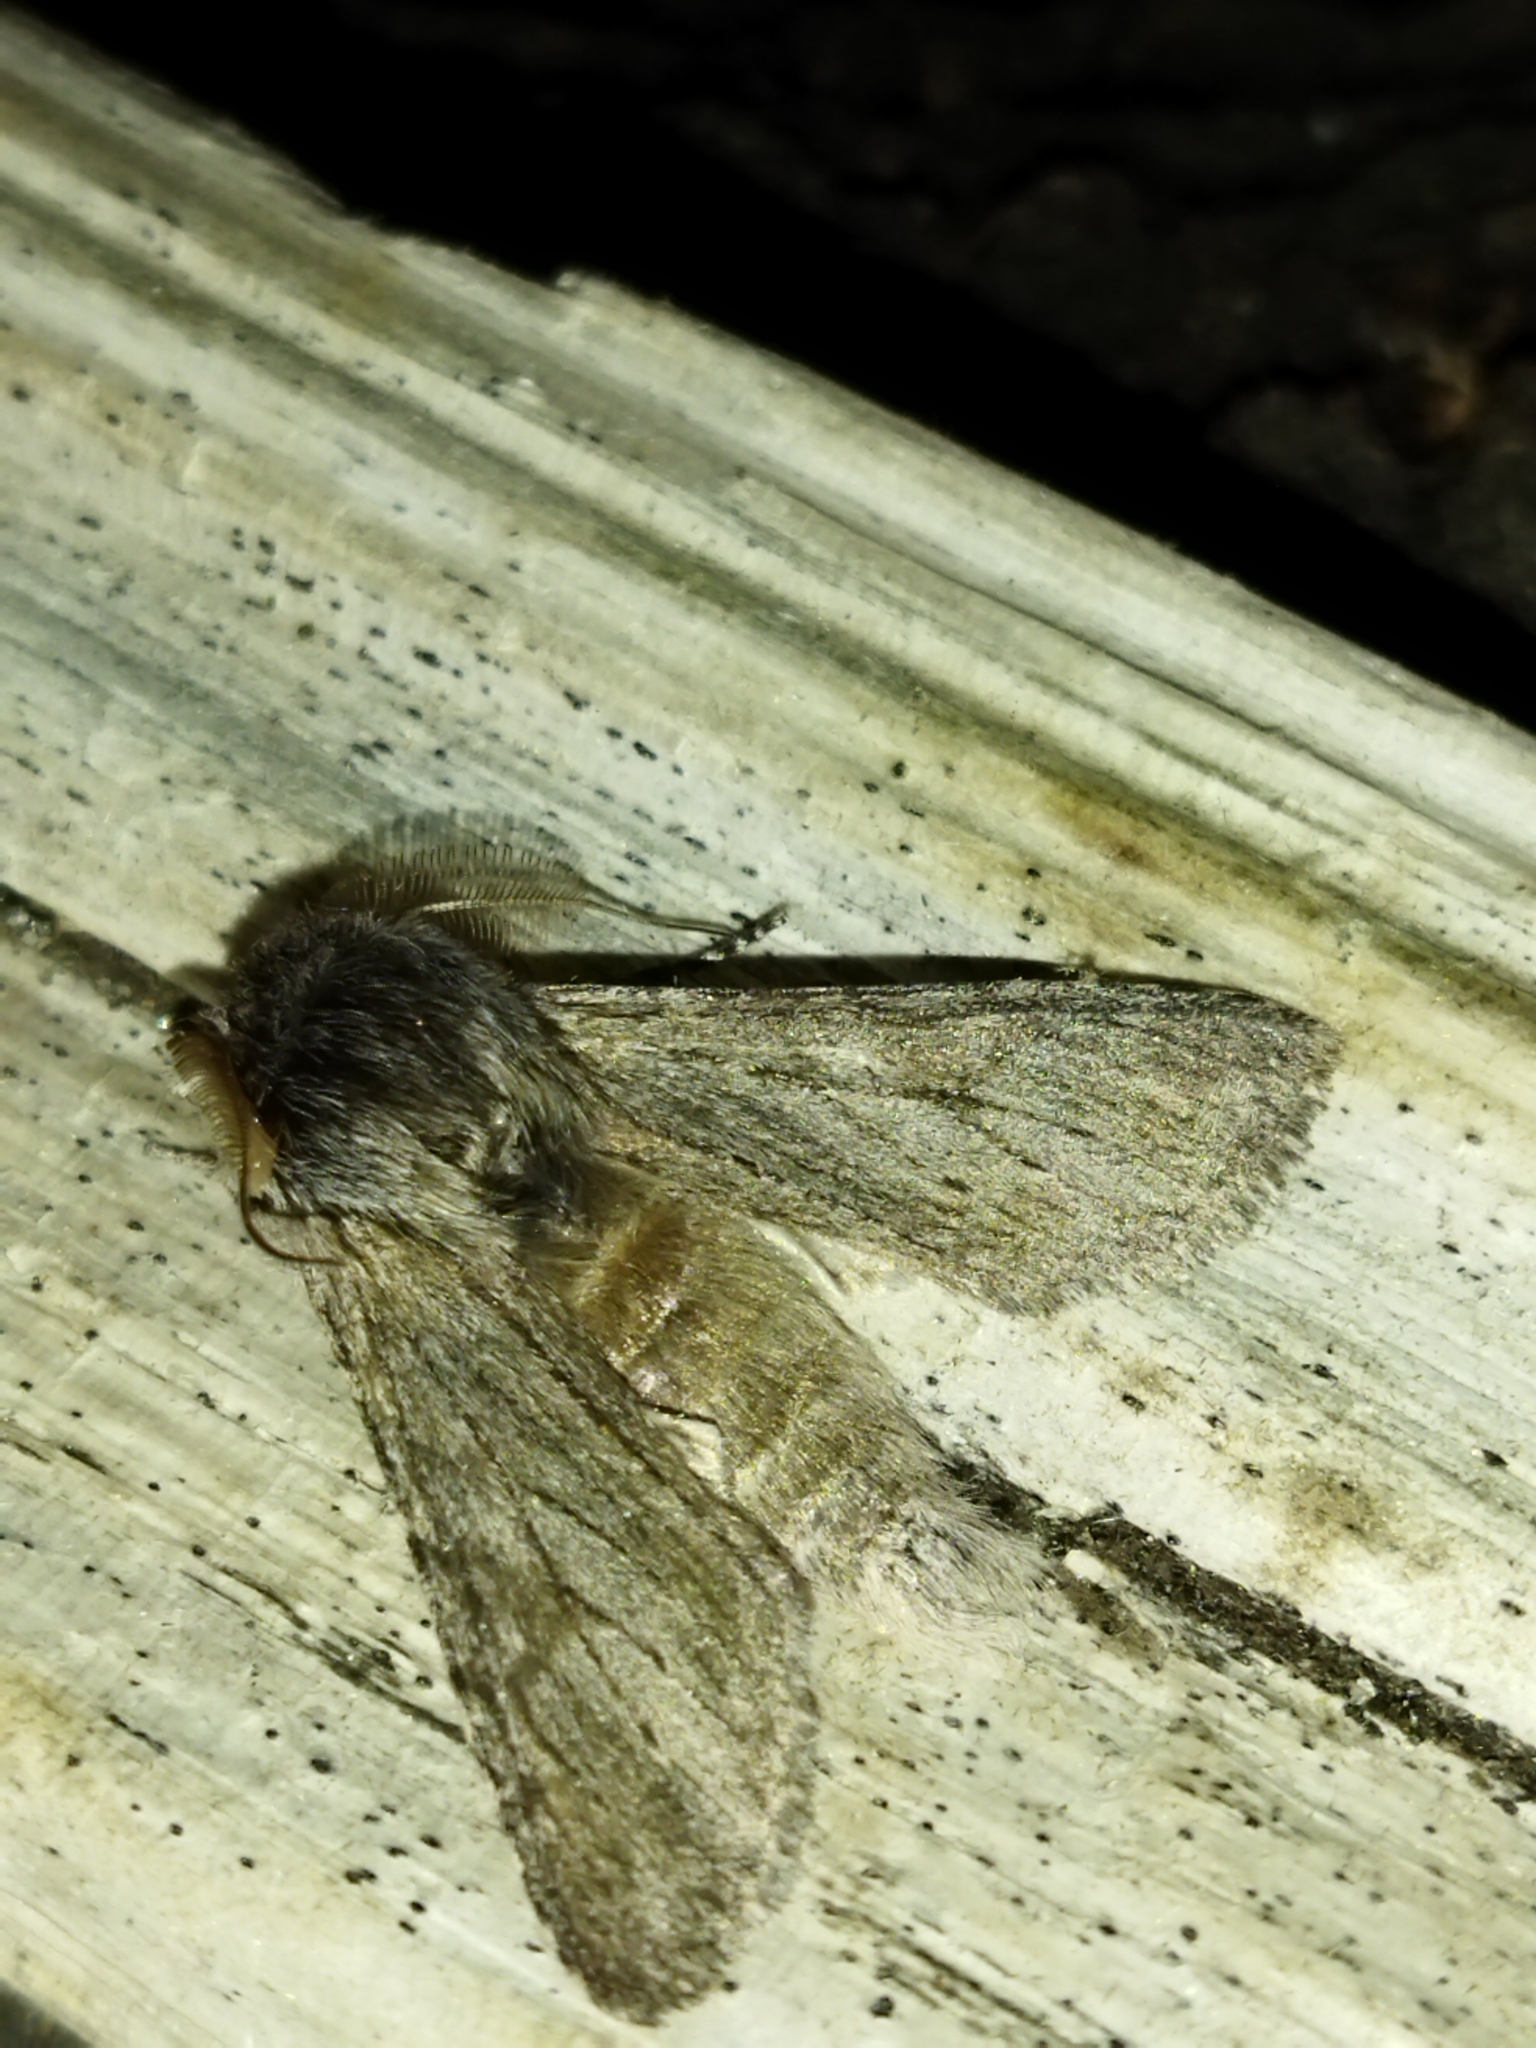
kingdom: Animalia
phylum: Arthropoda
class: Insecta
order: Lepidoptera
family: Notodontidae
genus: Dicranura
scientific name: Dicranura ulmi
